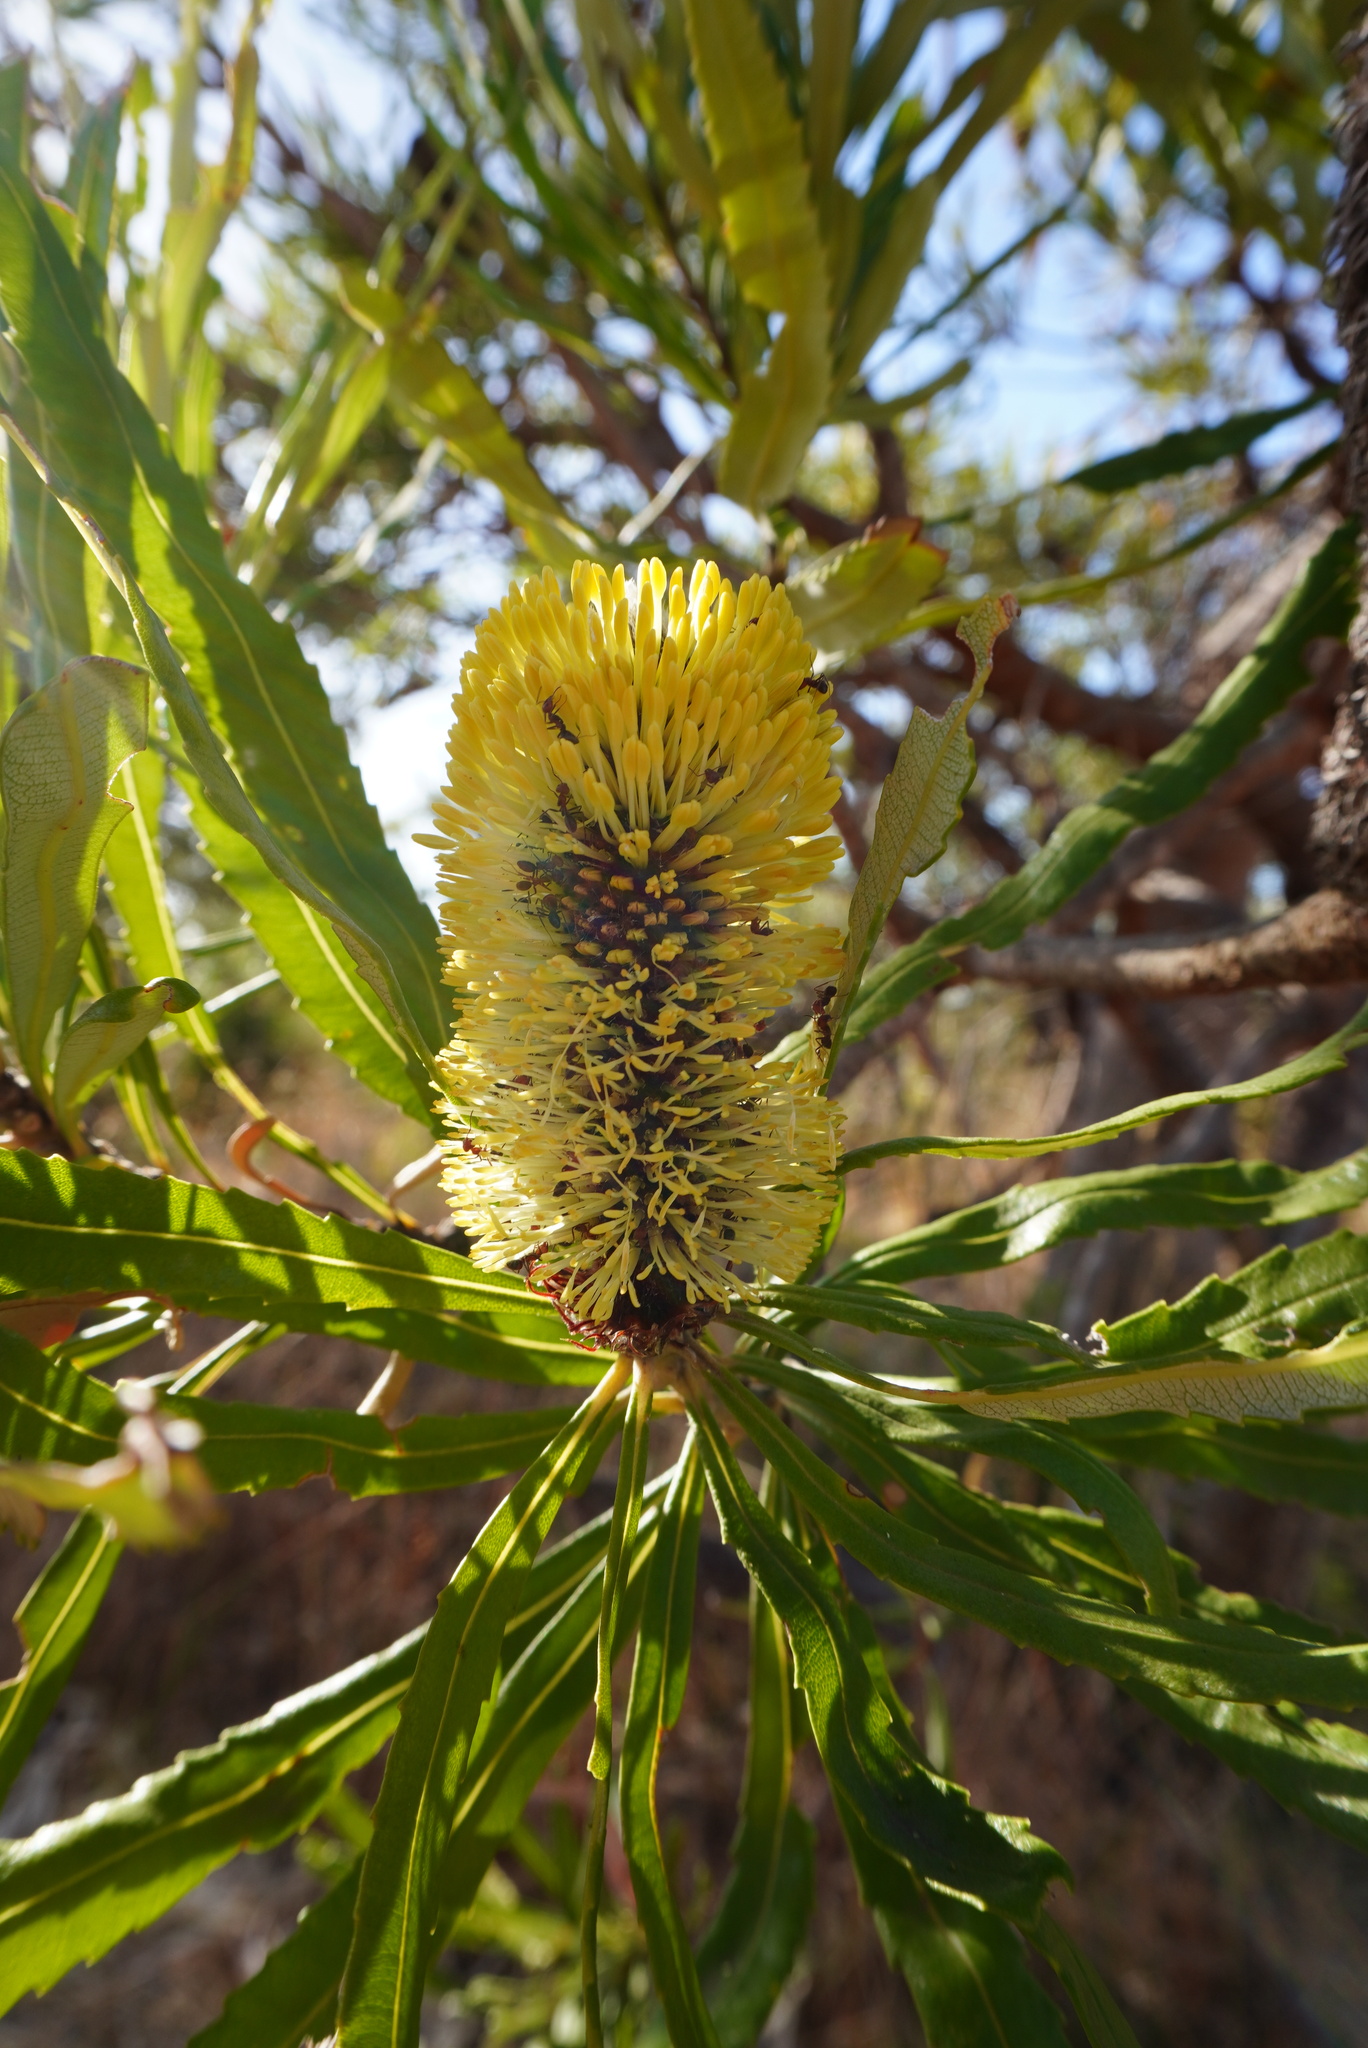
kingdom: Plantae
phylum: Tracheophyta
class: Magnoliopsida
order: Proteales
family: Proteaceae
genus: Banksia
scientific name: Banksia attenuata
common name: Coast banksia
